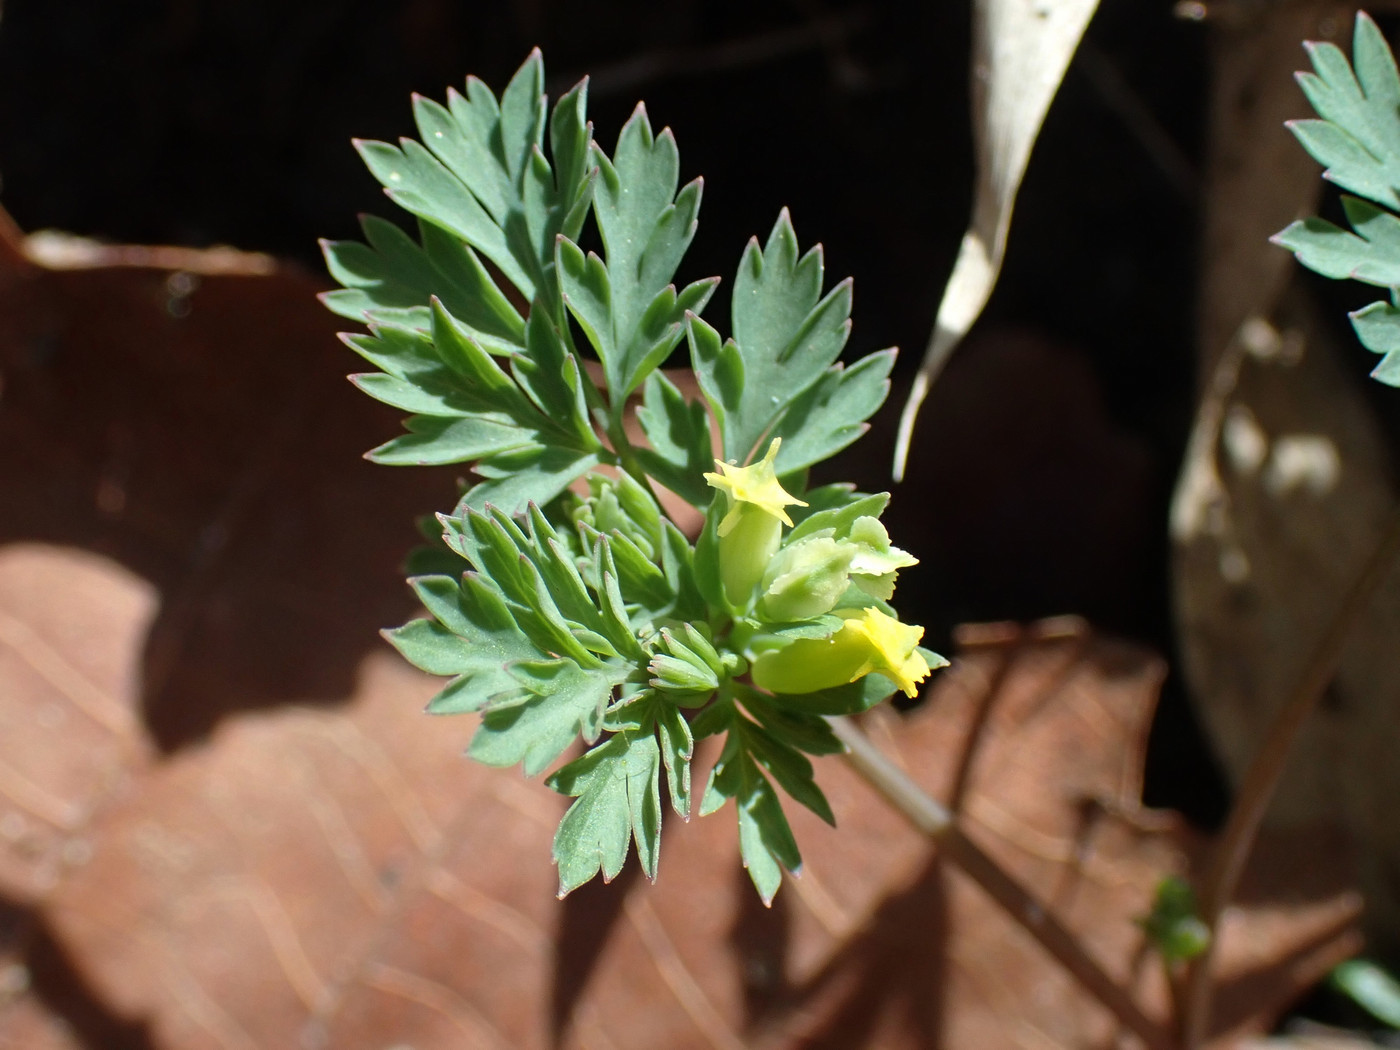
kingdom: Plantae
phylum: Tracheophyta
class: Magnoliopsida
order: Ranunculales
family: Papaveraceae
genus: Corydalis
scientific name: Corydalis flavula
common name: Yellow corydalis
